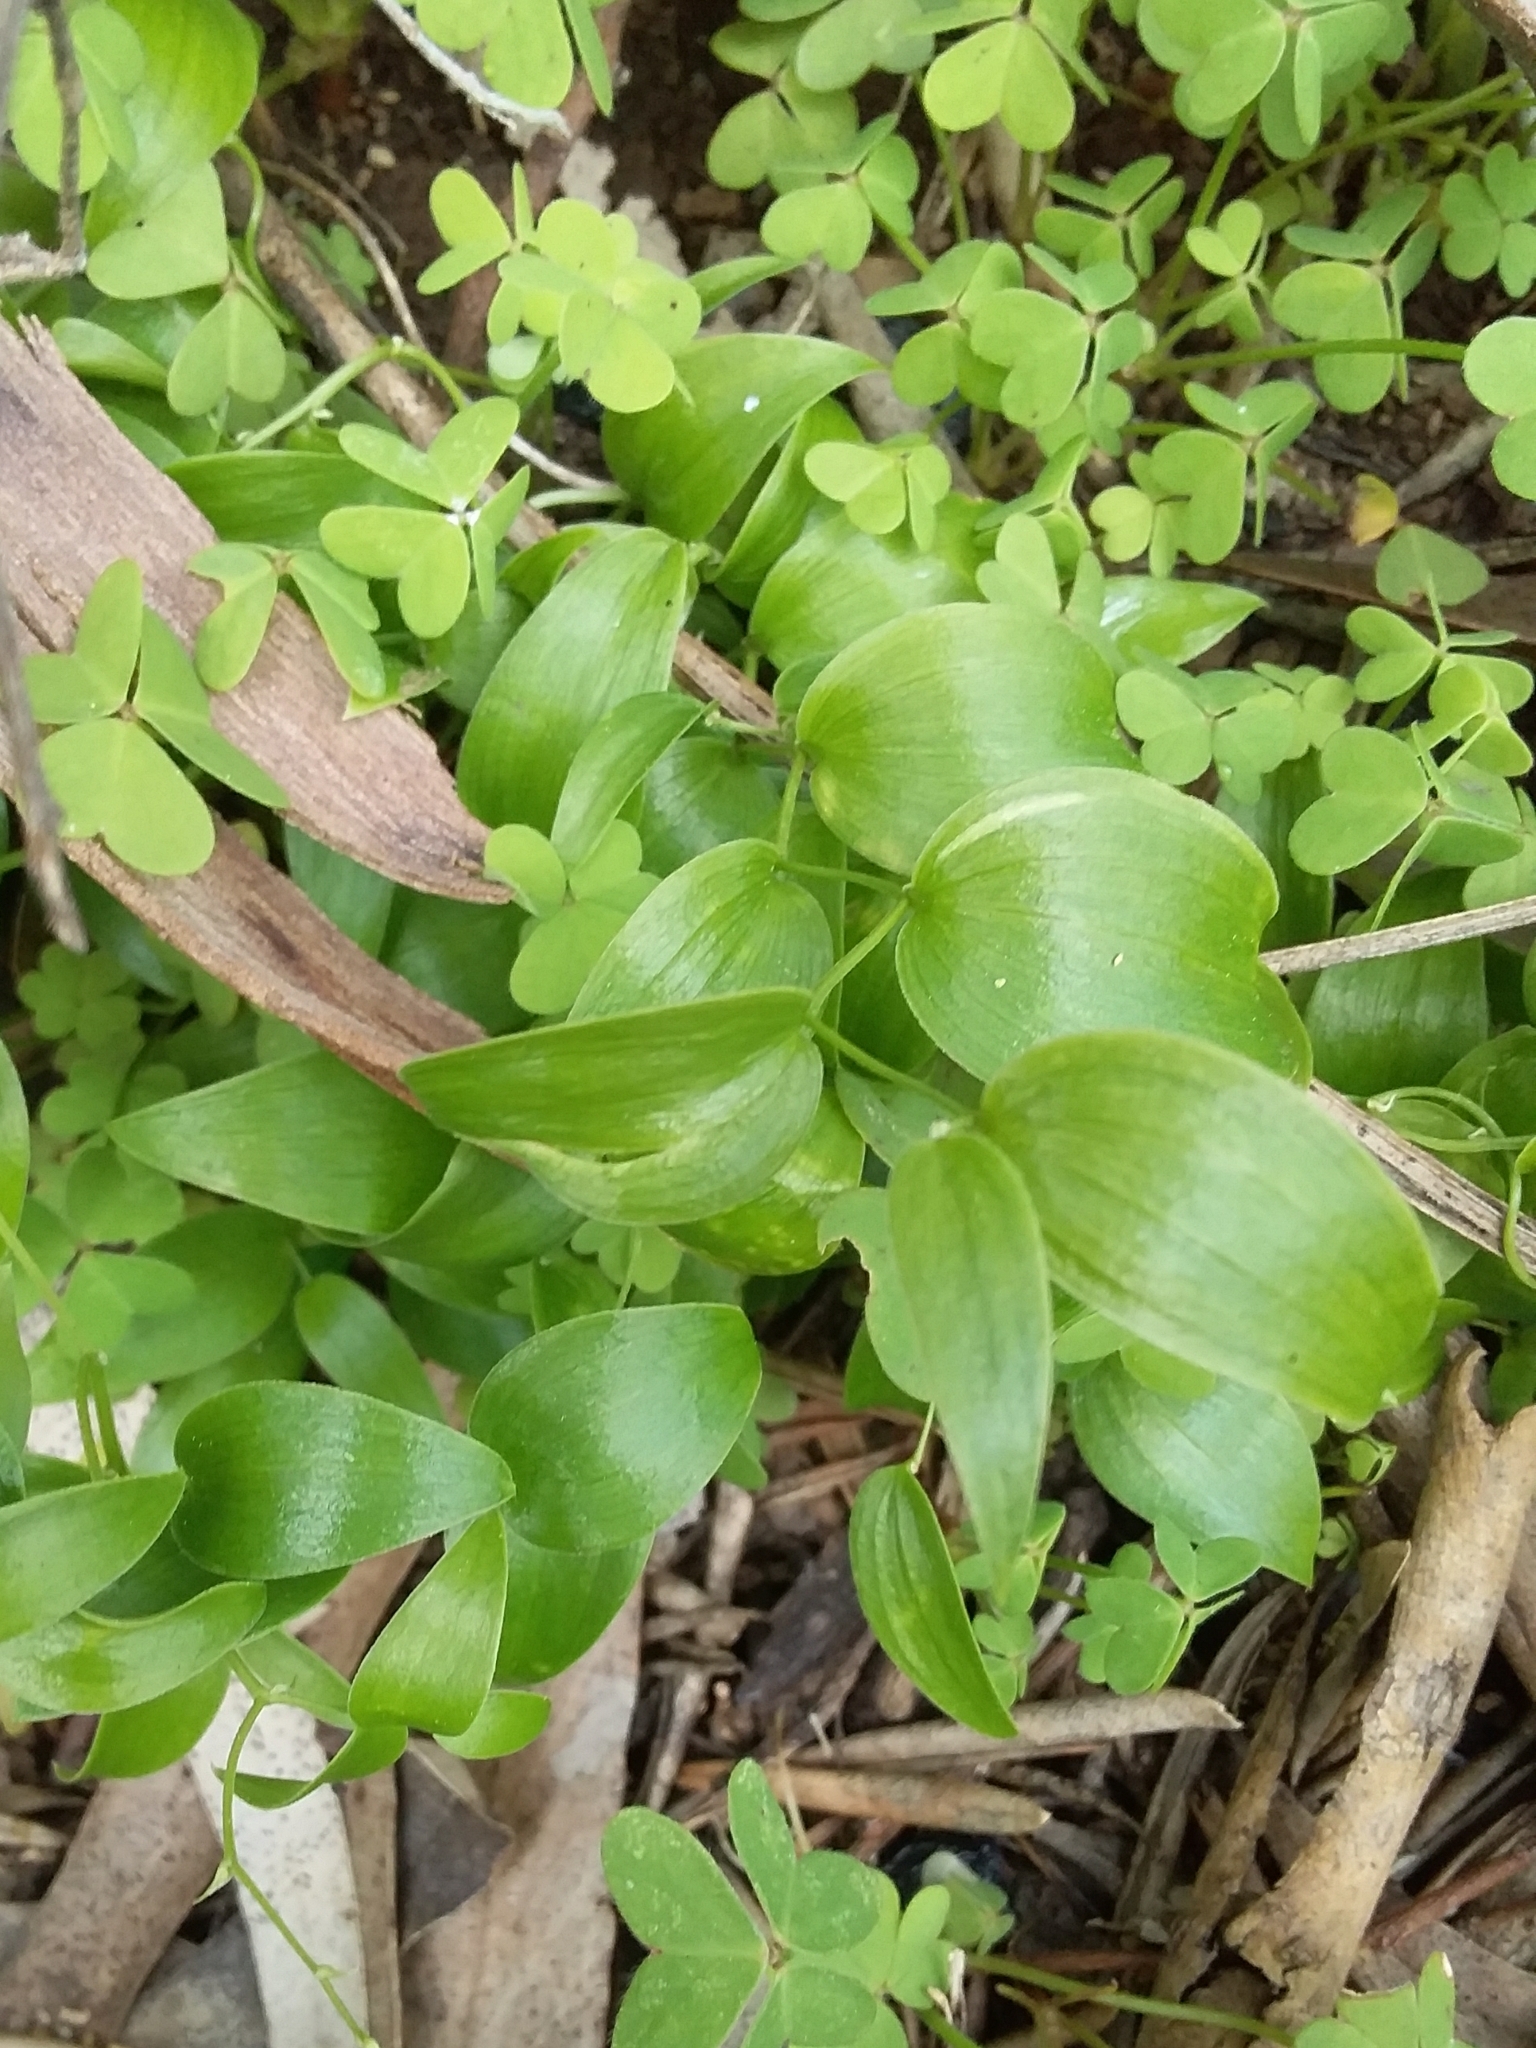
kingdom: Plantae
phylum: Tracheophyta
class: Liliopsida
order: Asparagales
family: Asparagaceae
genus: Asparagus
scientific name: Asparagus asparagoides
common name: African asparagus fern
